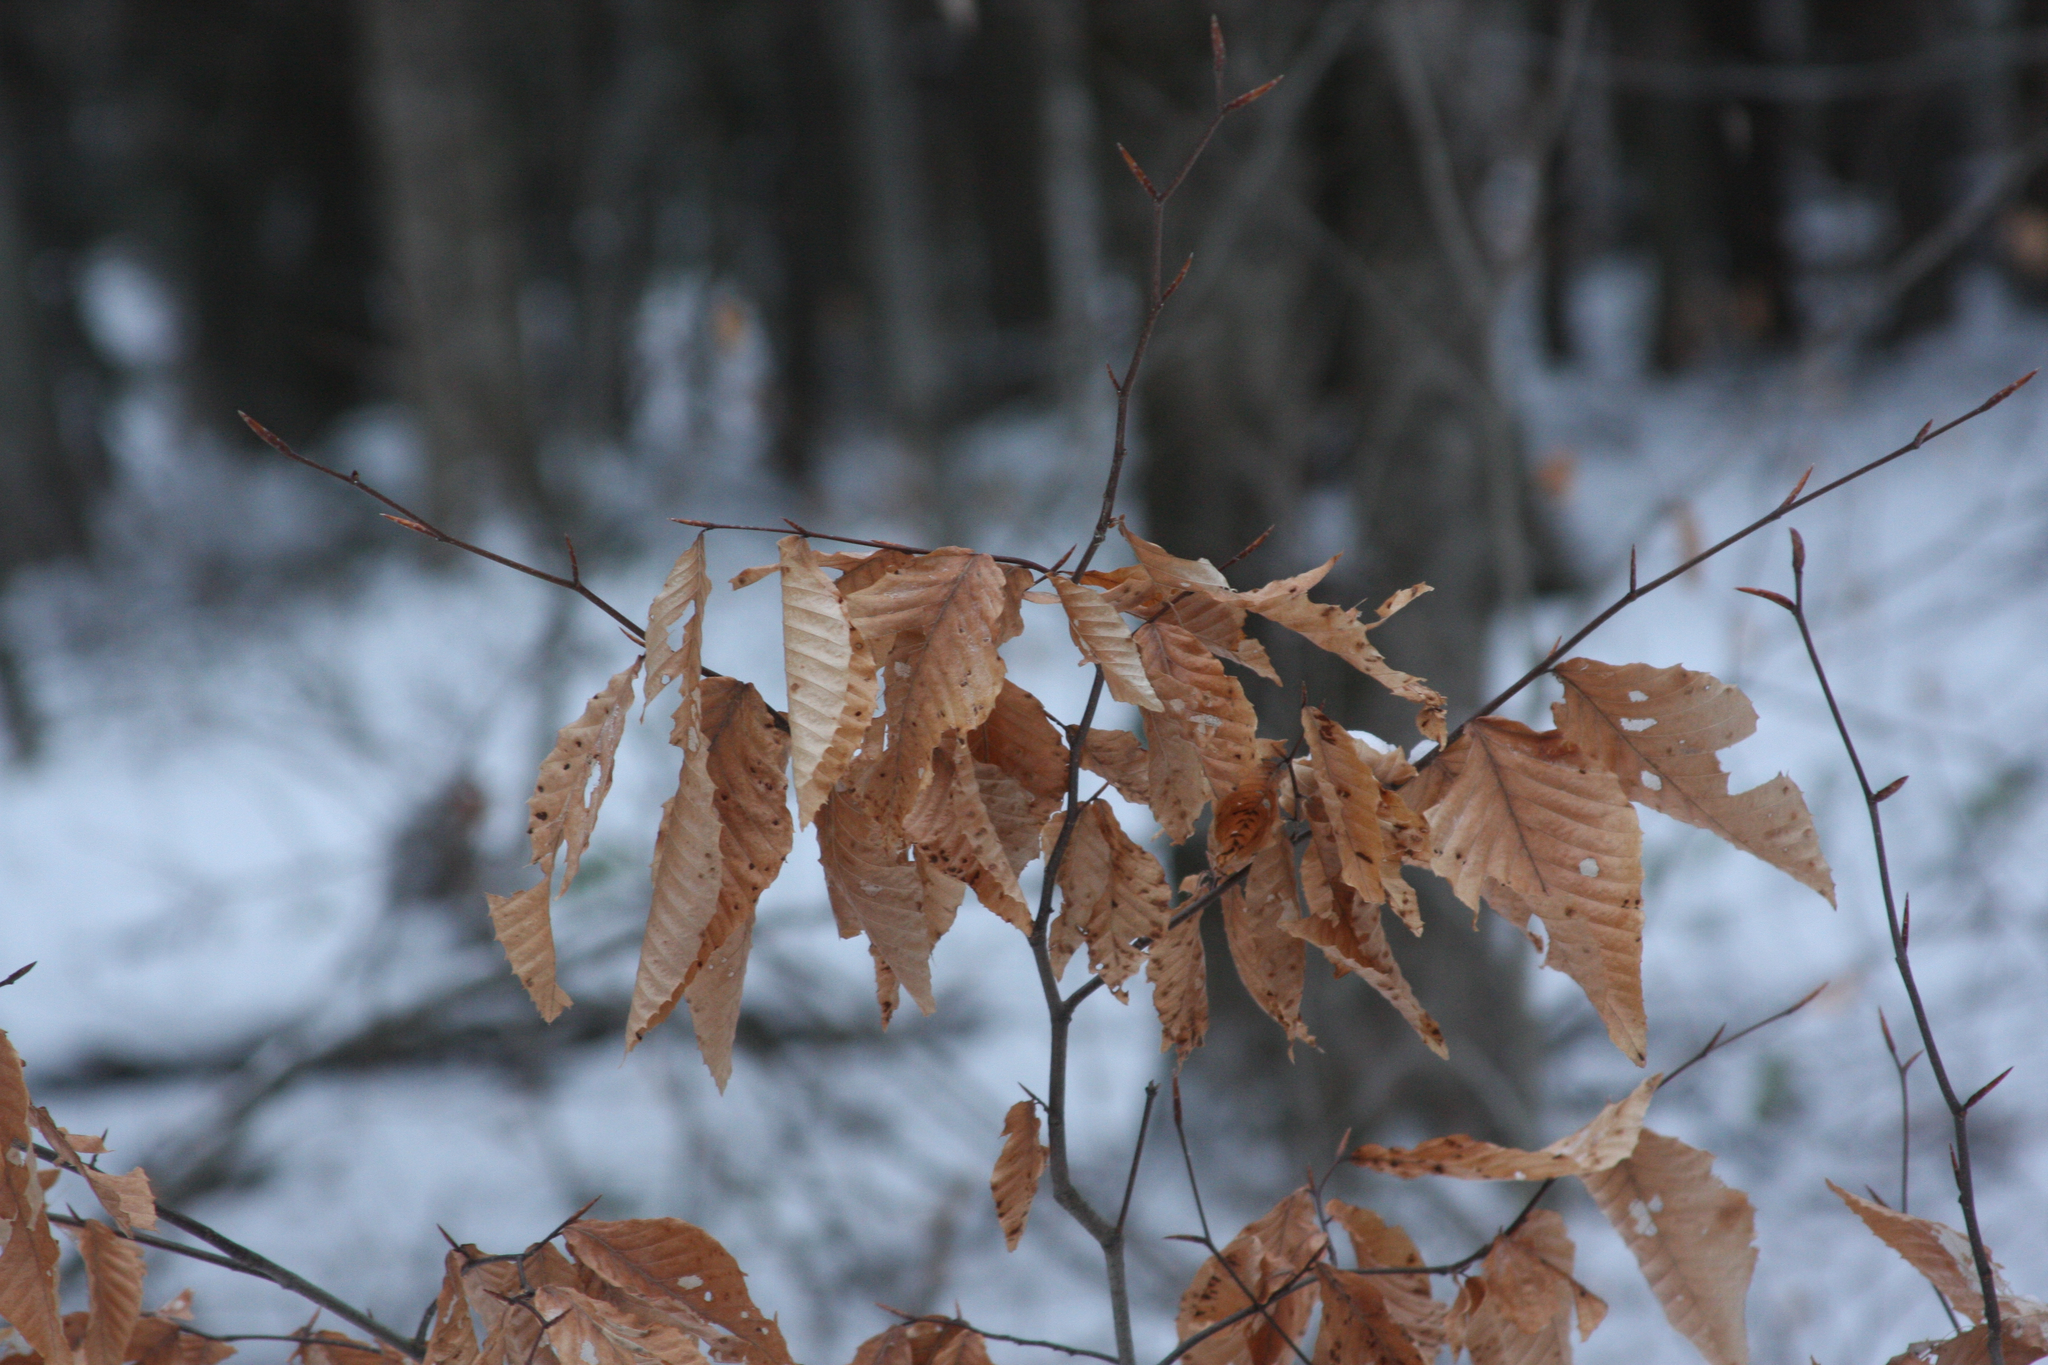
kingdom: Plantae
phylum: Tracheophyta
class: Magnoliopsida
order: Fagales
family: Fagaceae
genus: Fagus
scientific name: Fagus grandifolia
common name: American beech
